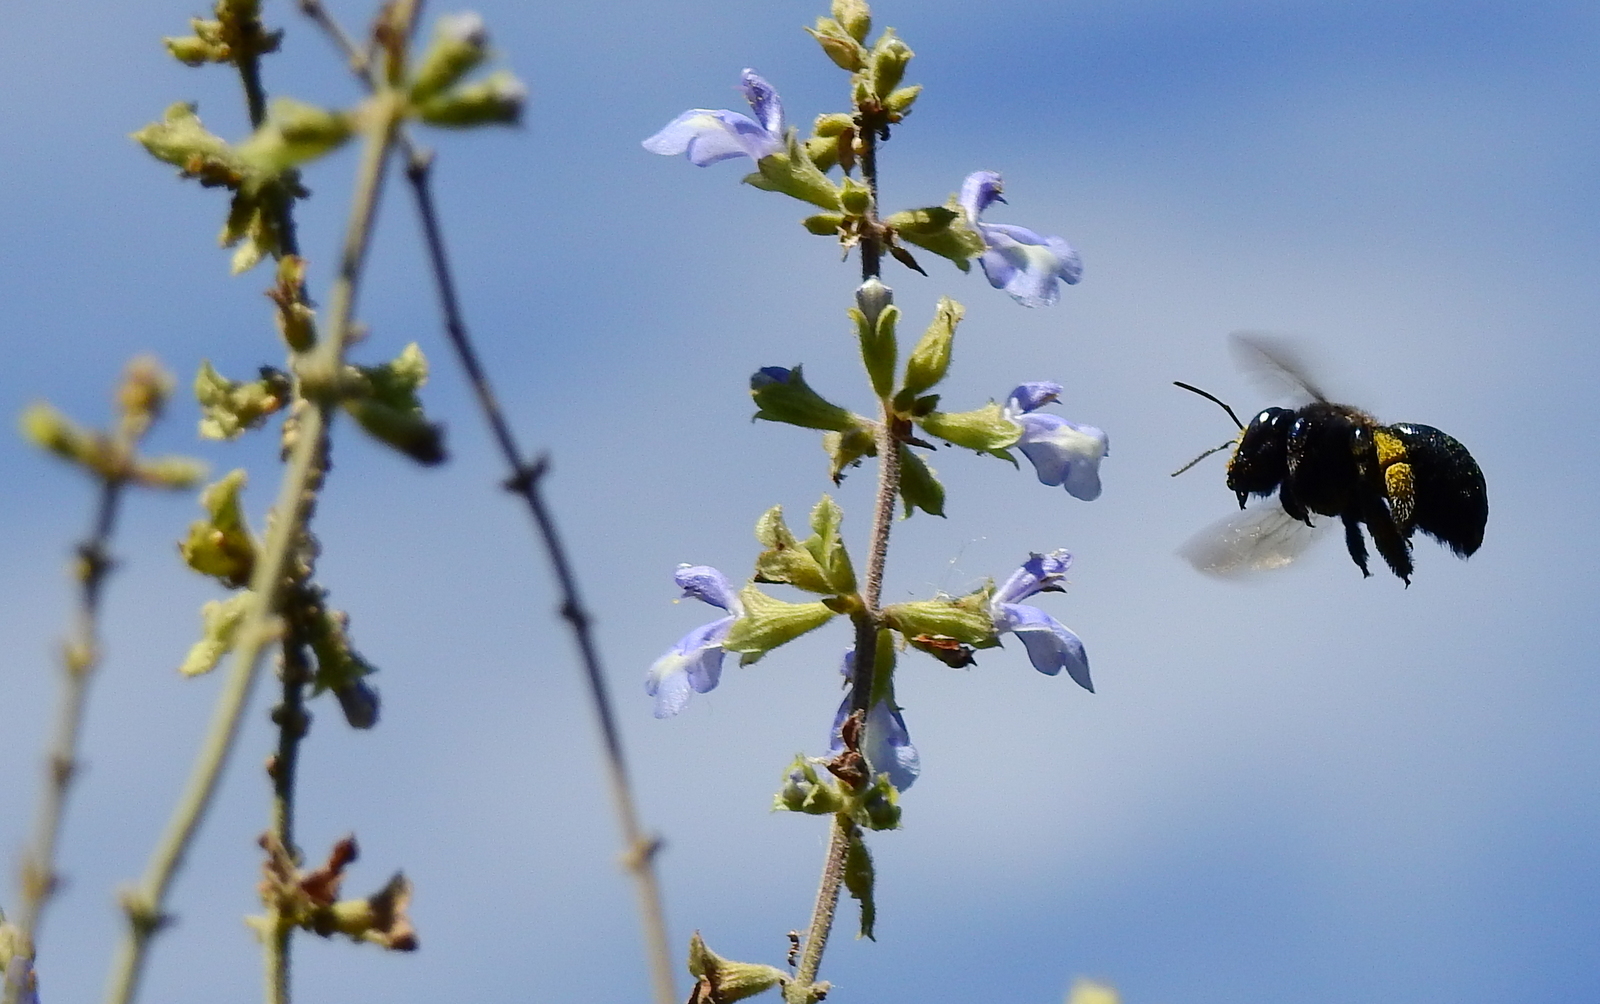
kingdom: Animalia
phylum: Arthropoda
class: Insecta
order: Hymenoptera
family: Apidae
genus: Xylocopa
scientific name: Xylocopa splendidula
